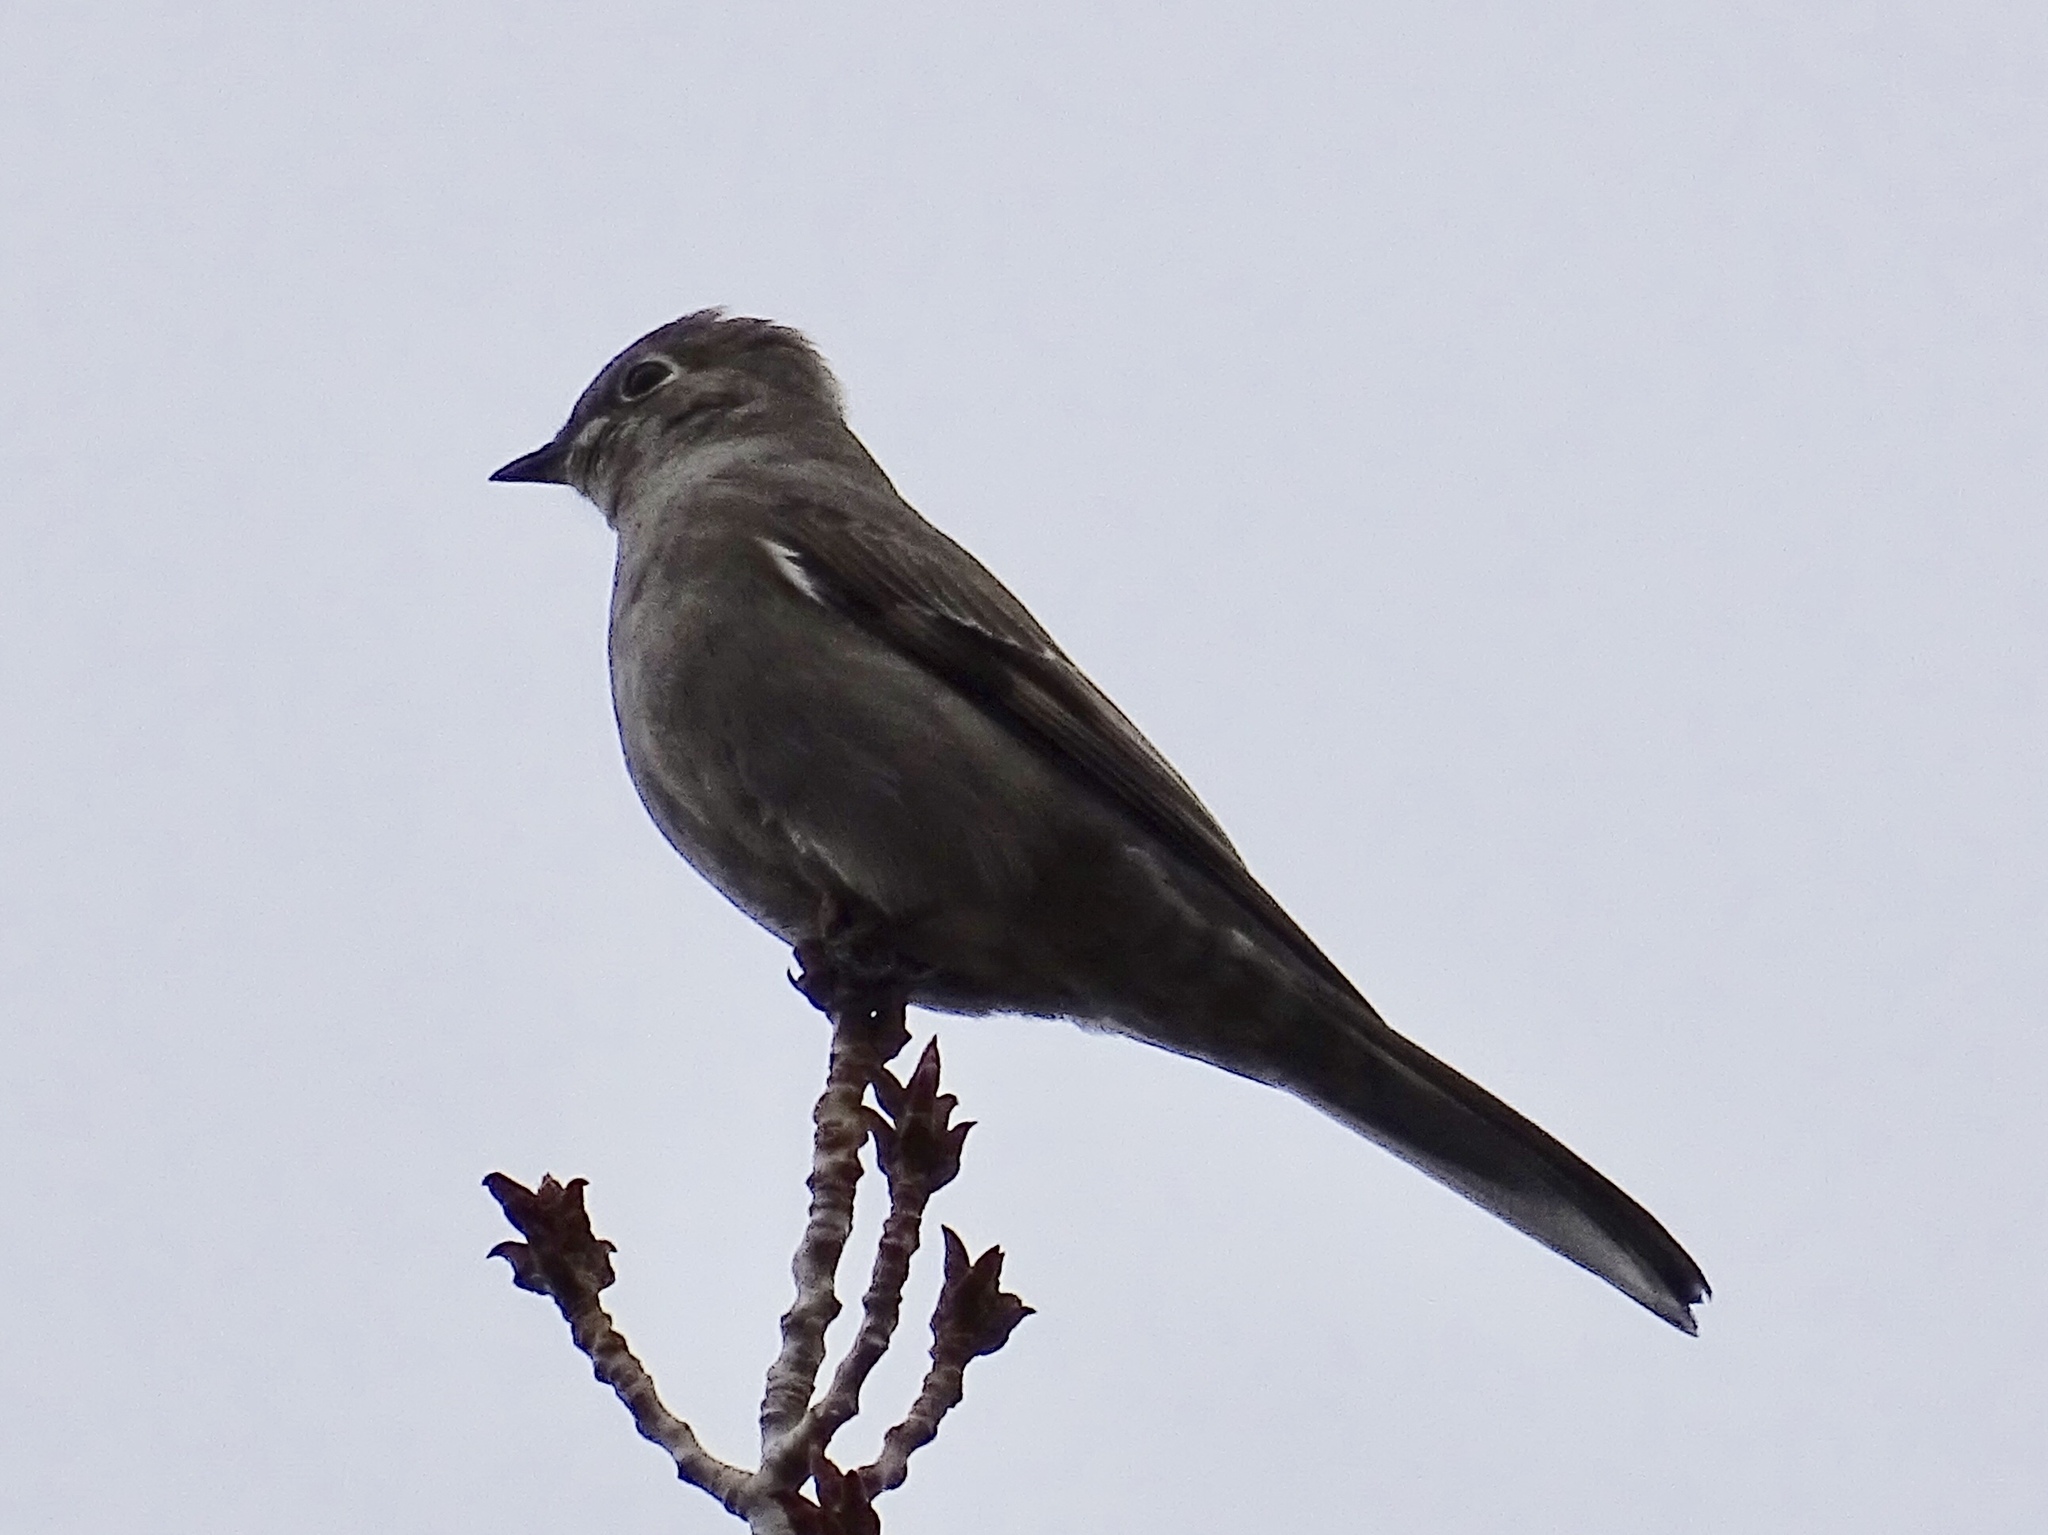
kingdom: Animalia
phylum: Chordata
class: Aves
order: Passeriformes
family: Turdidae
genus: Myadestes
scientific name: Myadestes townsendi
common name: Townsend's solitaire
